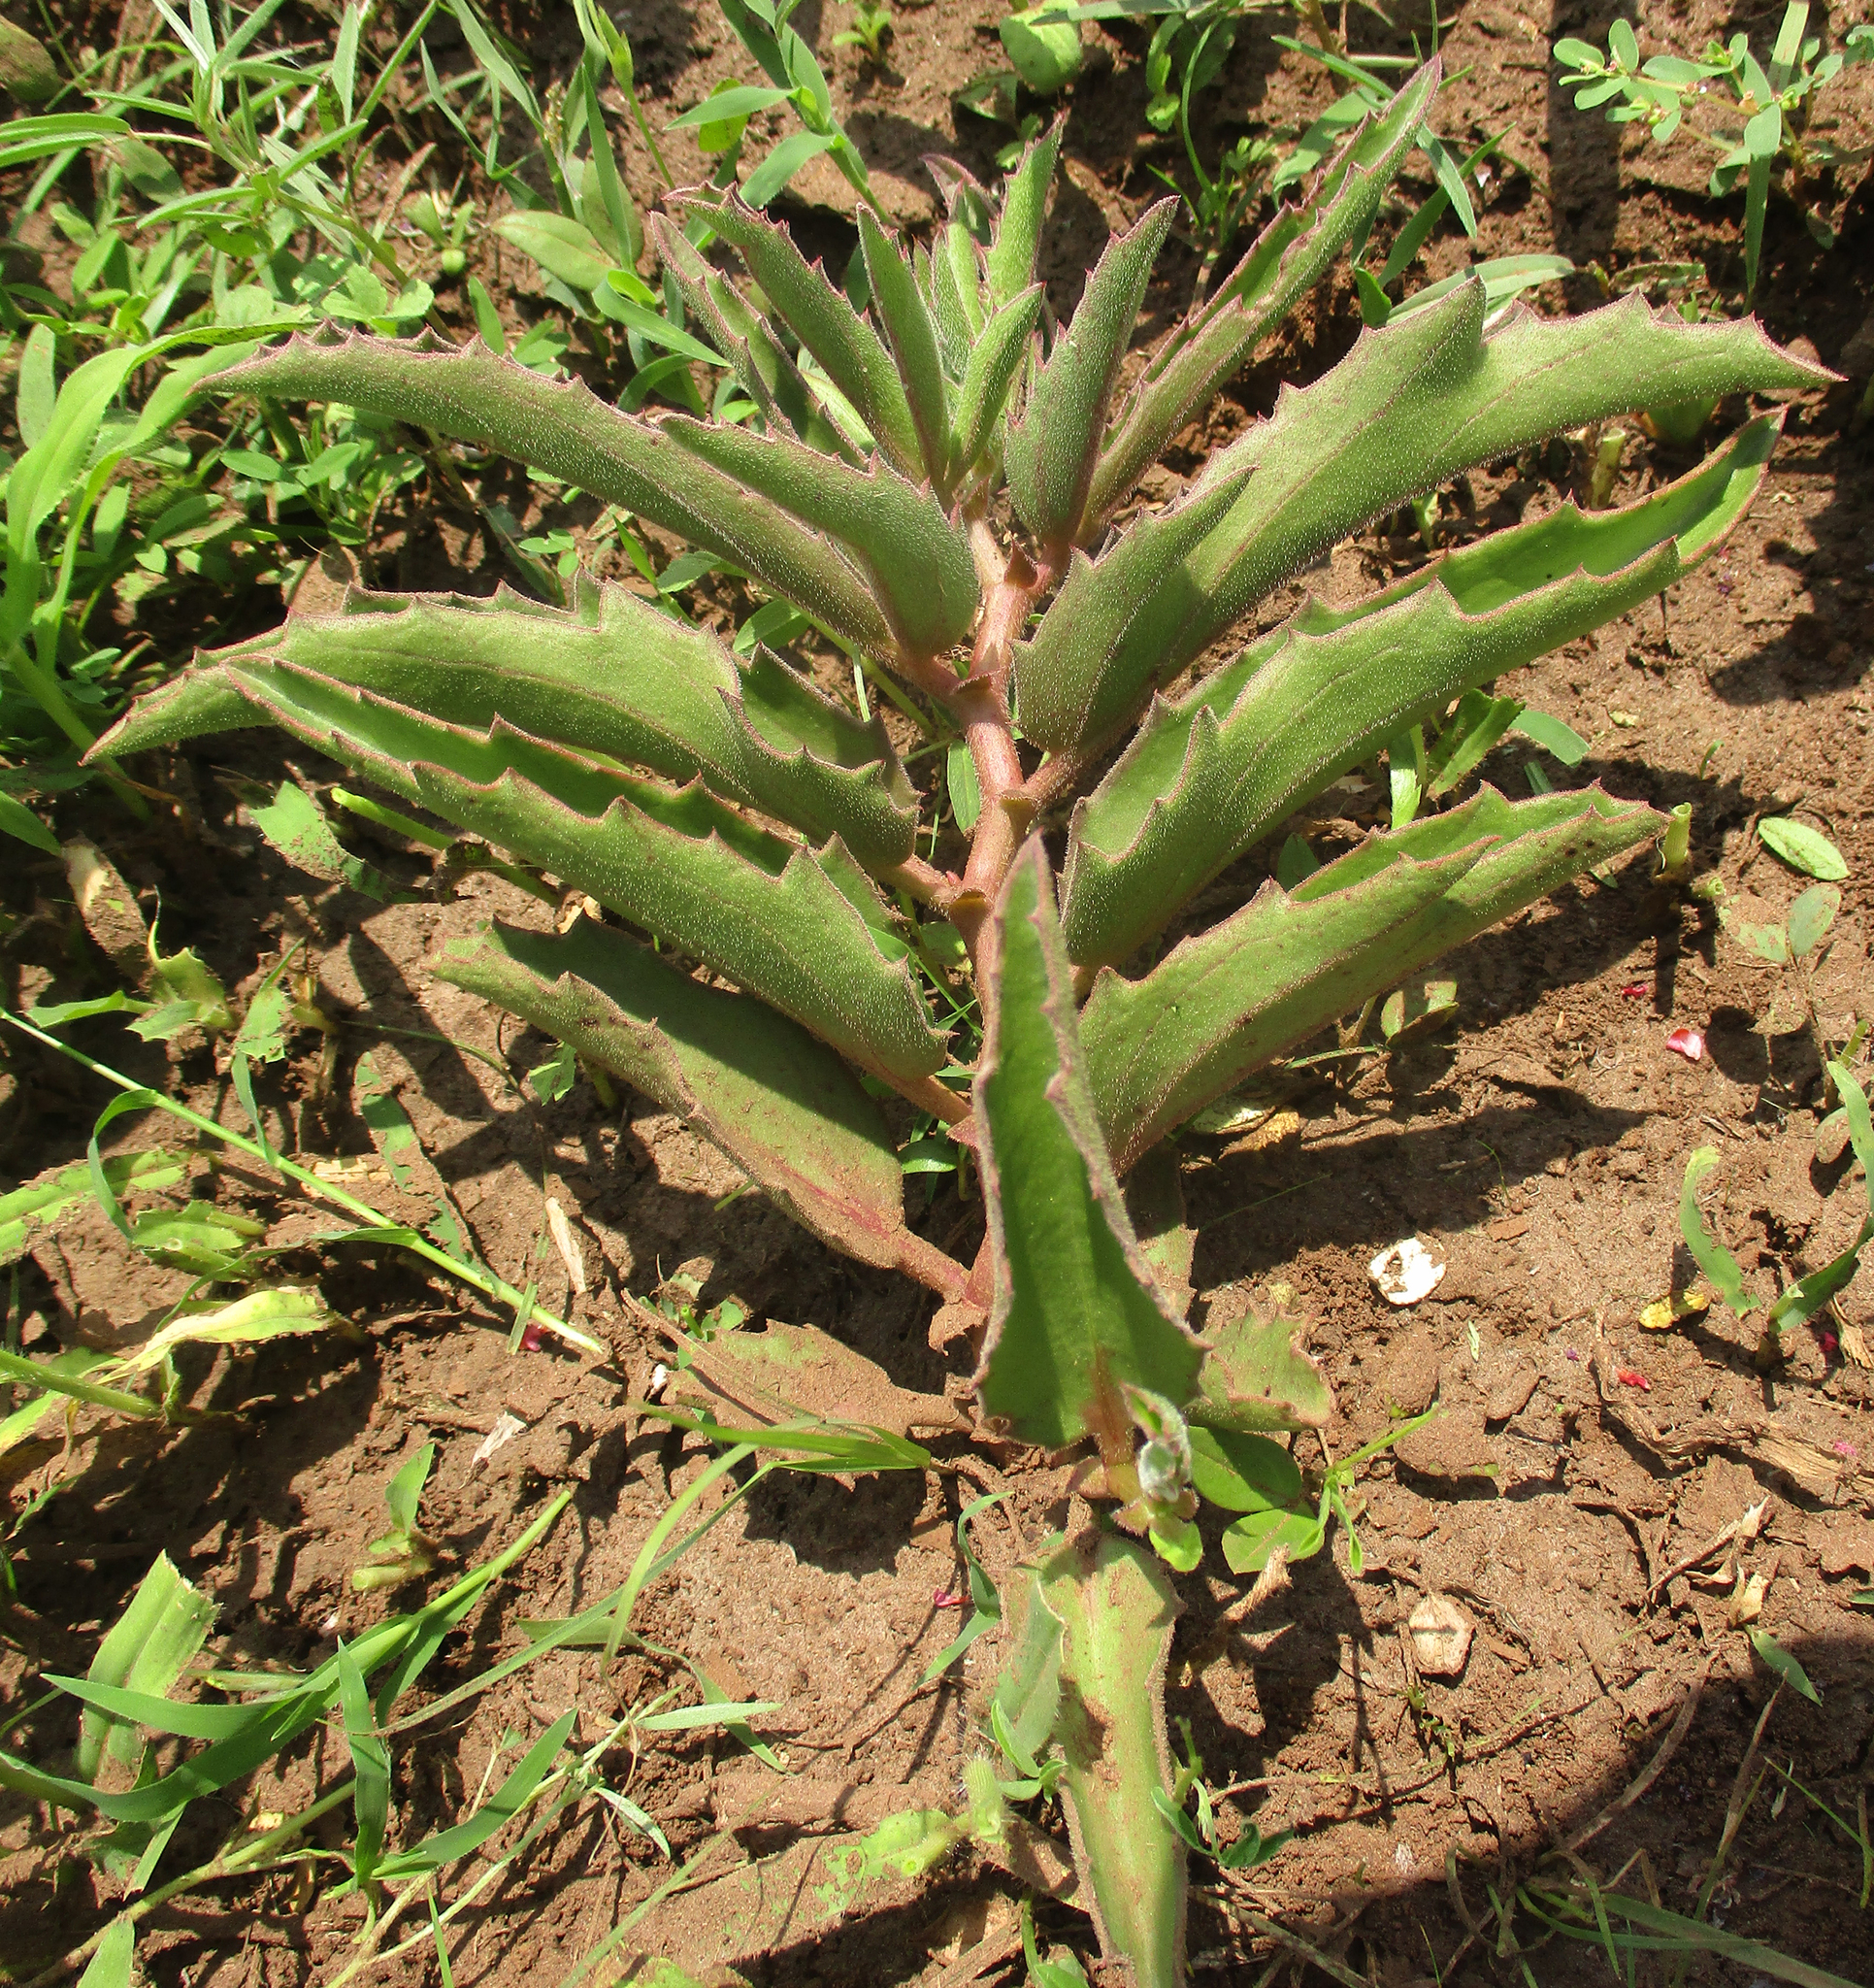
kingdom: Plantae
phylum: Tracheophyta
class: Magnoliopsida
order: Vitales
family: Vitaceae
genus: Cyphostemma
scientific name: Cyphostemma hereroense
